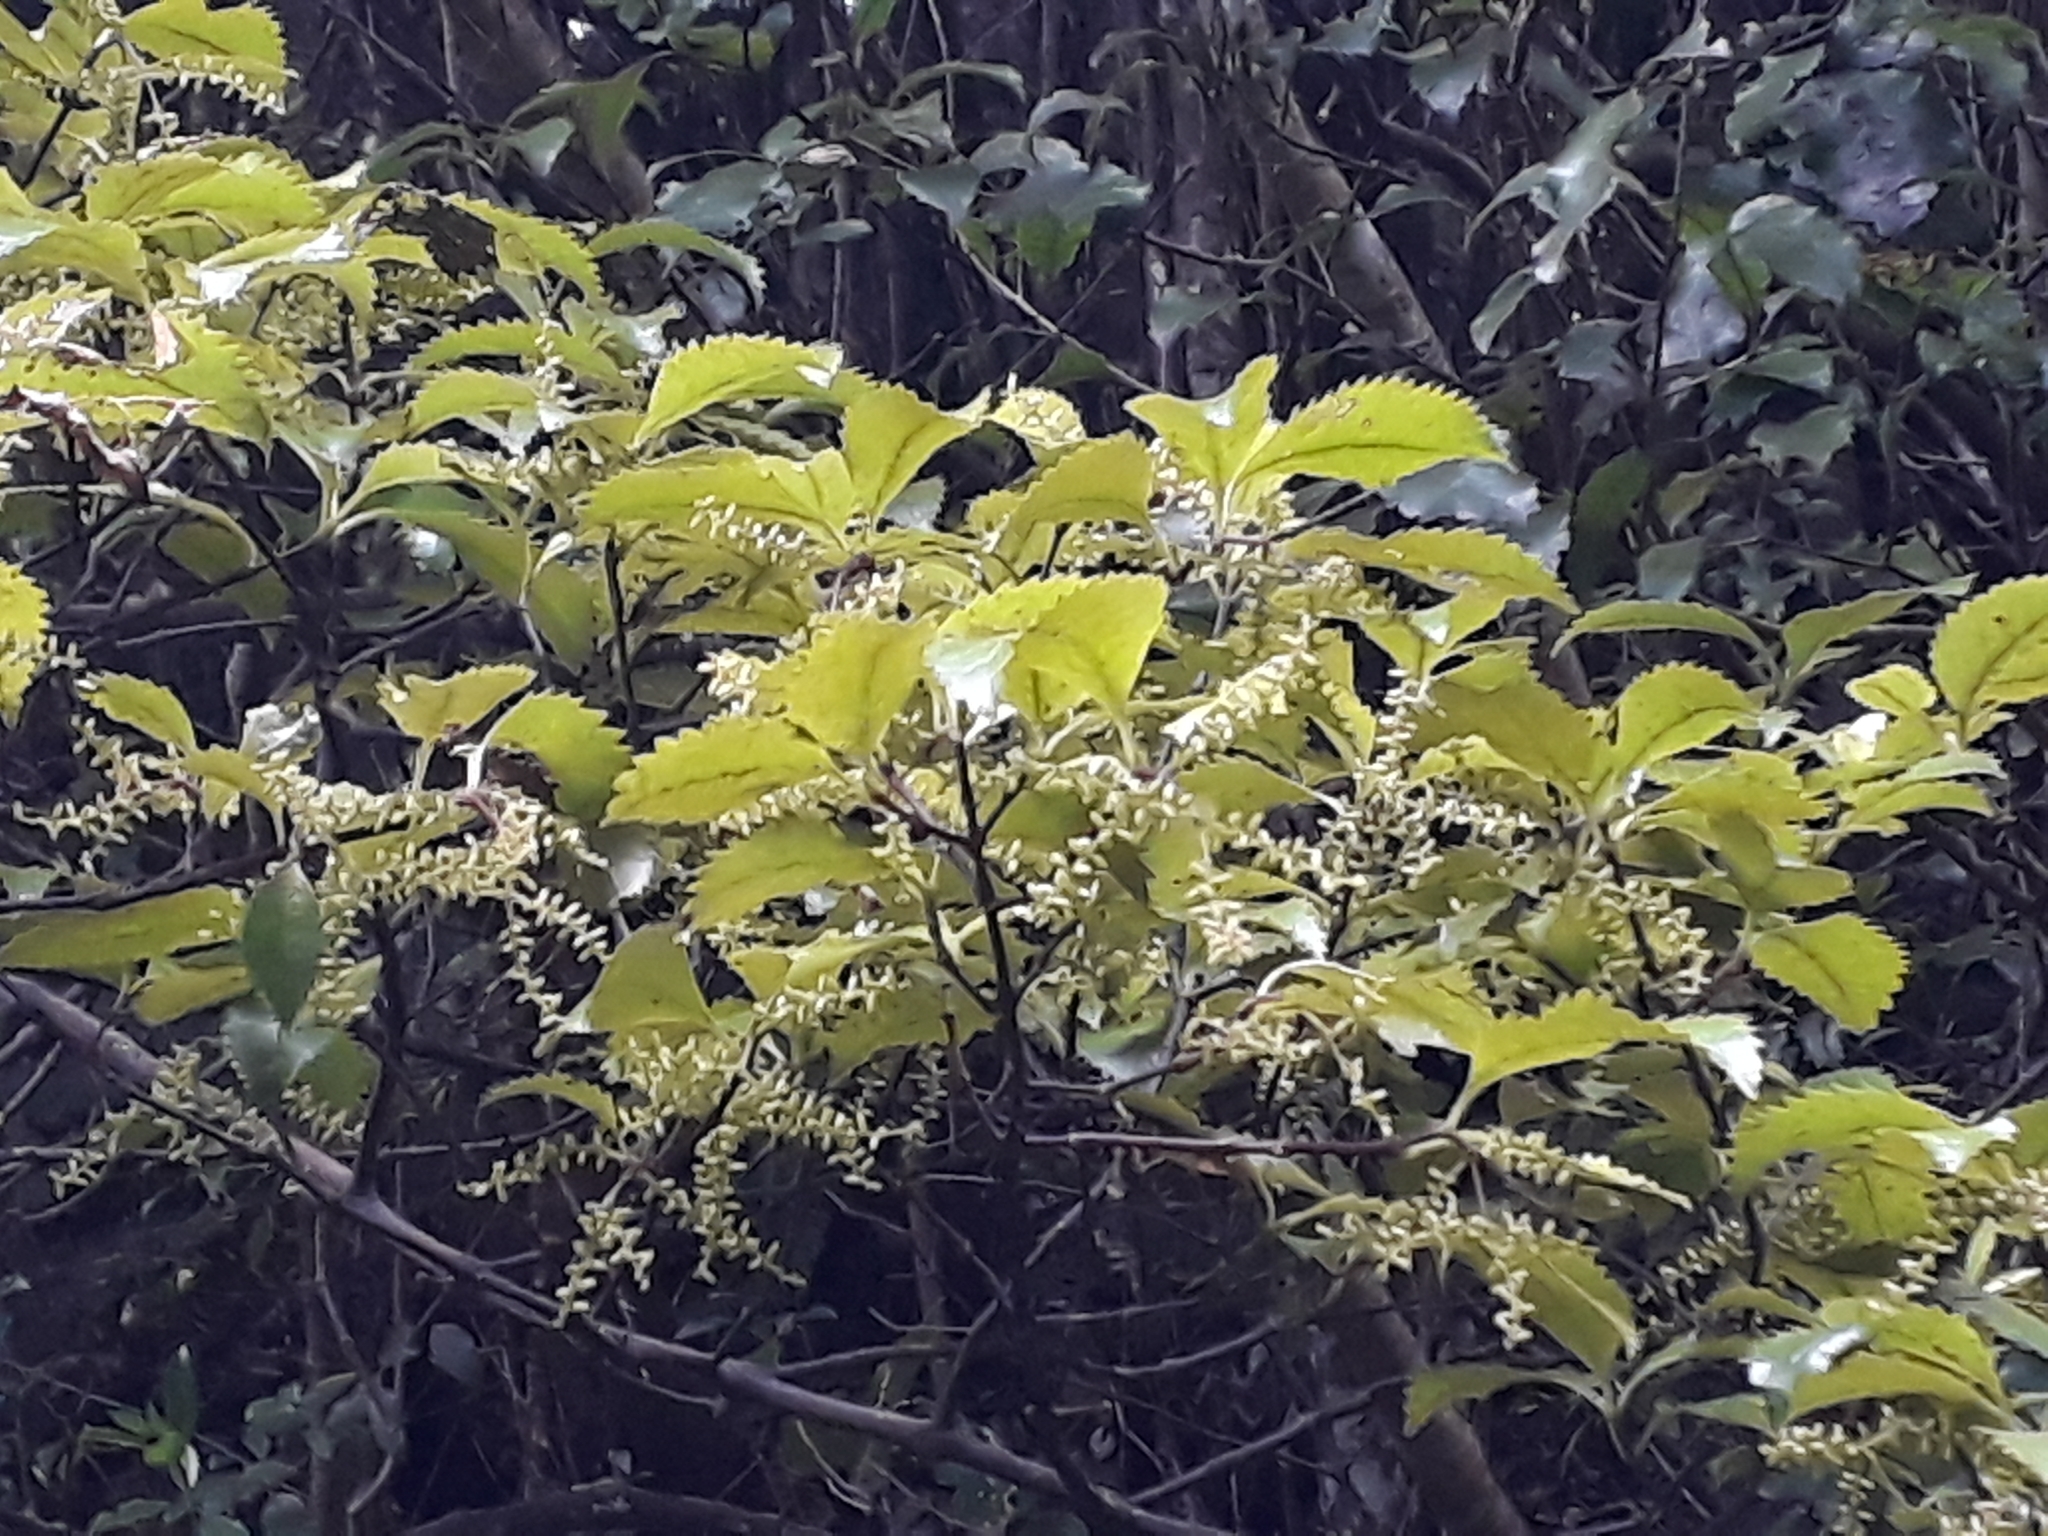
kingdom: Plantae
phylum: Tracheophyta
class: Magnoliopsida
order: Chloranthales
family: Chloranthaceae
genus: Ascarina
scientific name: Ascarina lucida
